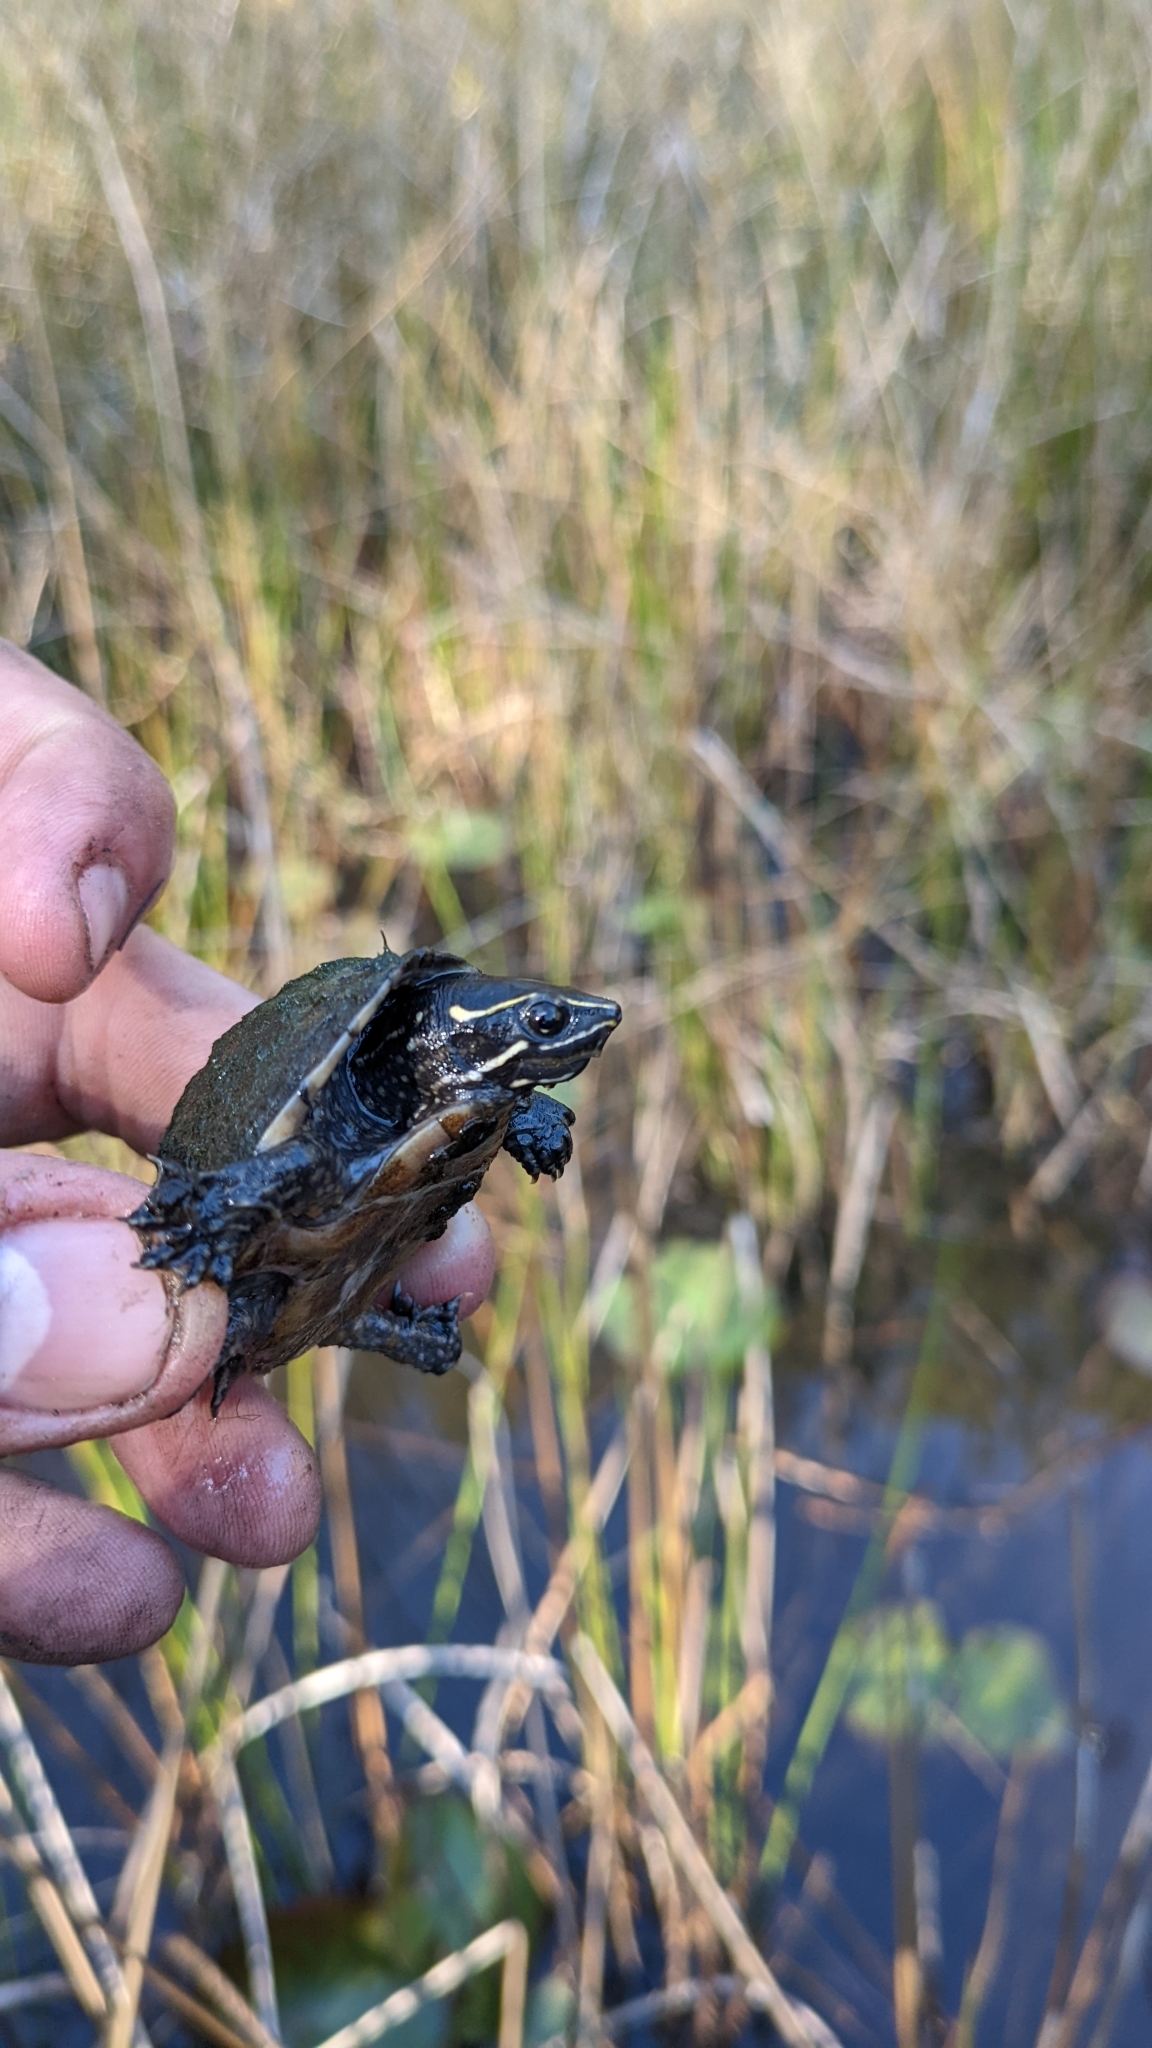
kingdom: Animalia
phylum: Chordata
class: Testudines
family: Kinosternidae
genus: Sternotherus
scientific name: Sternotherus odoratus
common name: Common musk turtle
